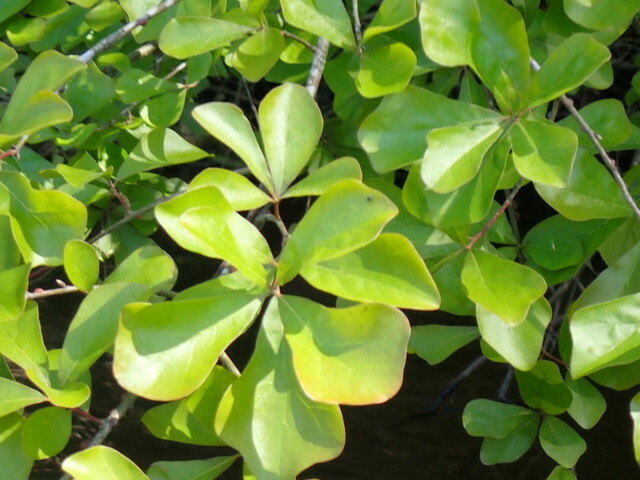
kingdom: Plantae
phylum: Tracheophyta
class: Magnoliopsida
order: Fagales
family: Fagaceae
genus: Quercus
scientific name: Quercus nigra
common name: Water oak
